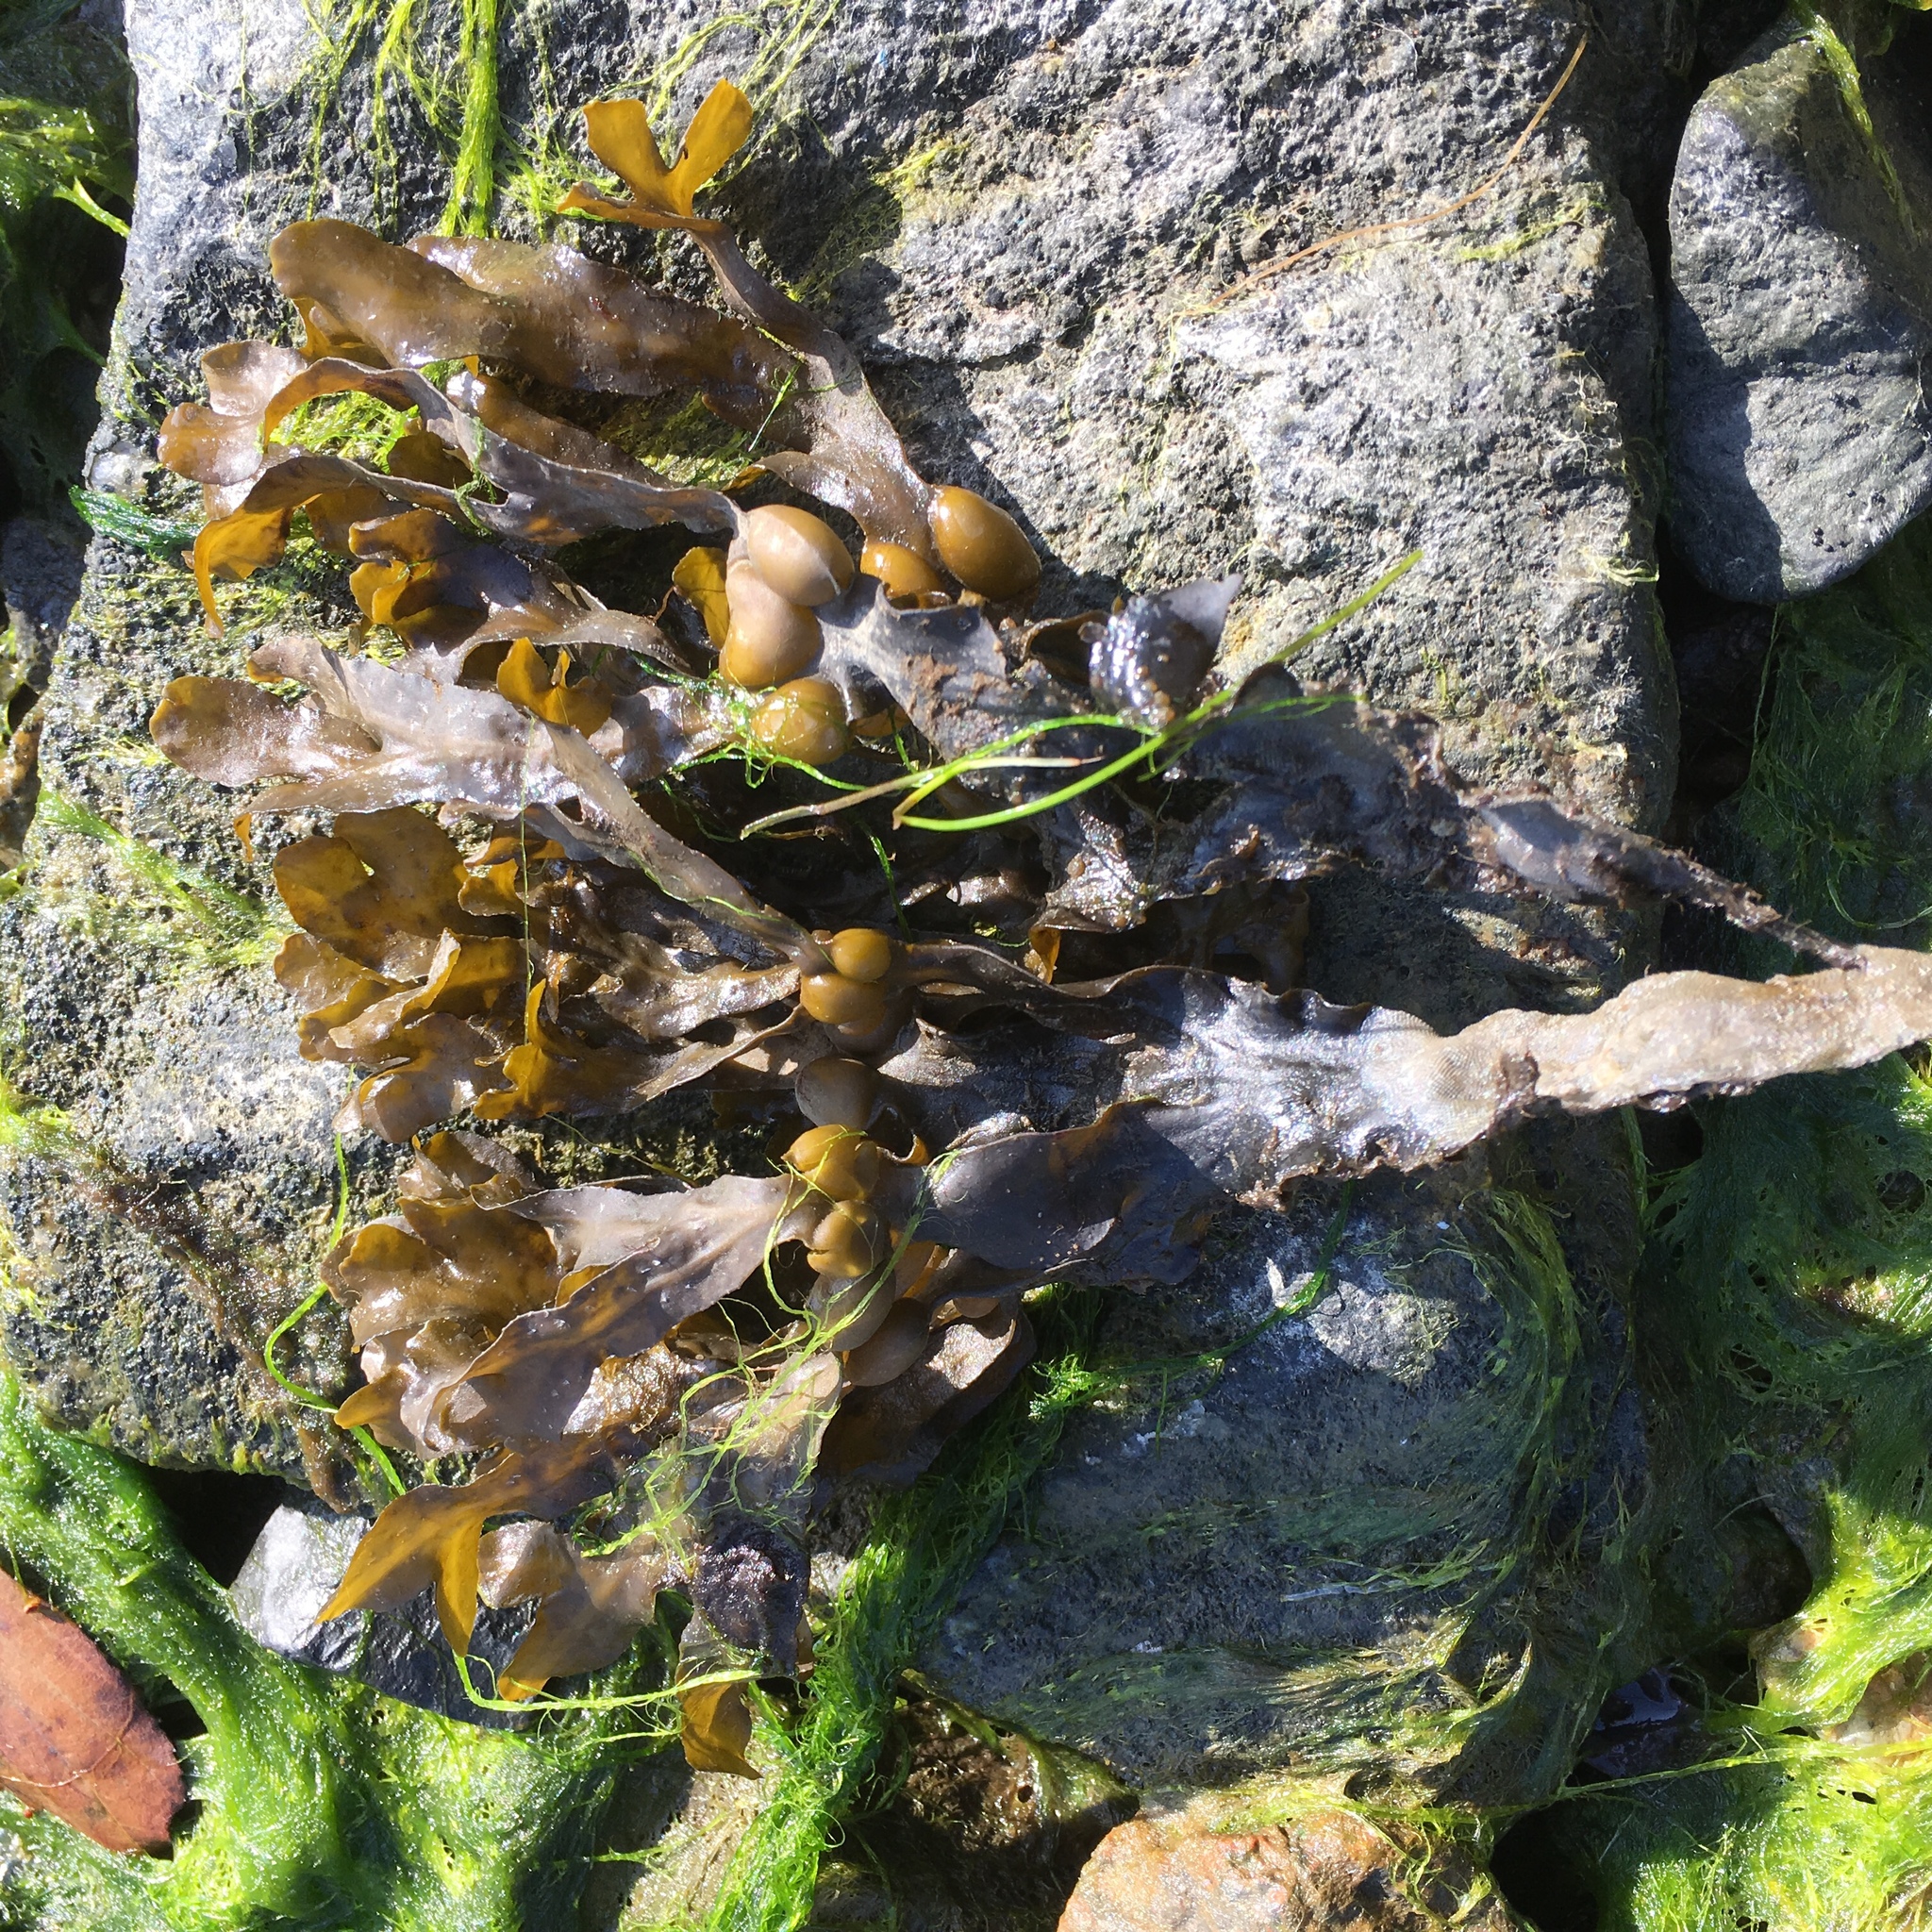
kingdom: Chromista
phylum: Ochrophyta
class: Phaeophyceae
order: Fucales
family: Fucaceae
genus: Fucus
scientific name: Fucus vesiculosus
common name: Bladder wrack
